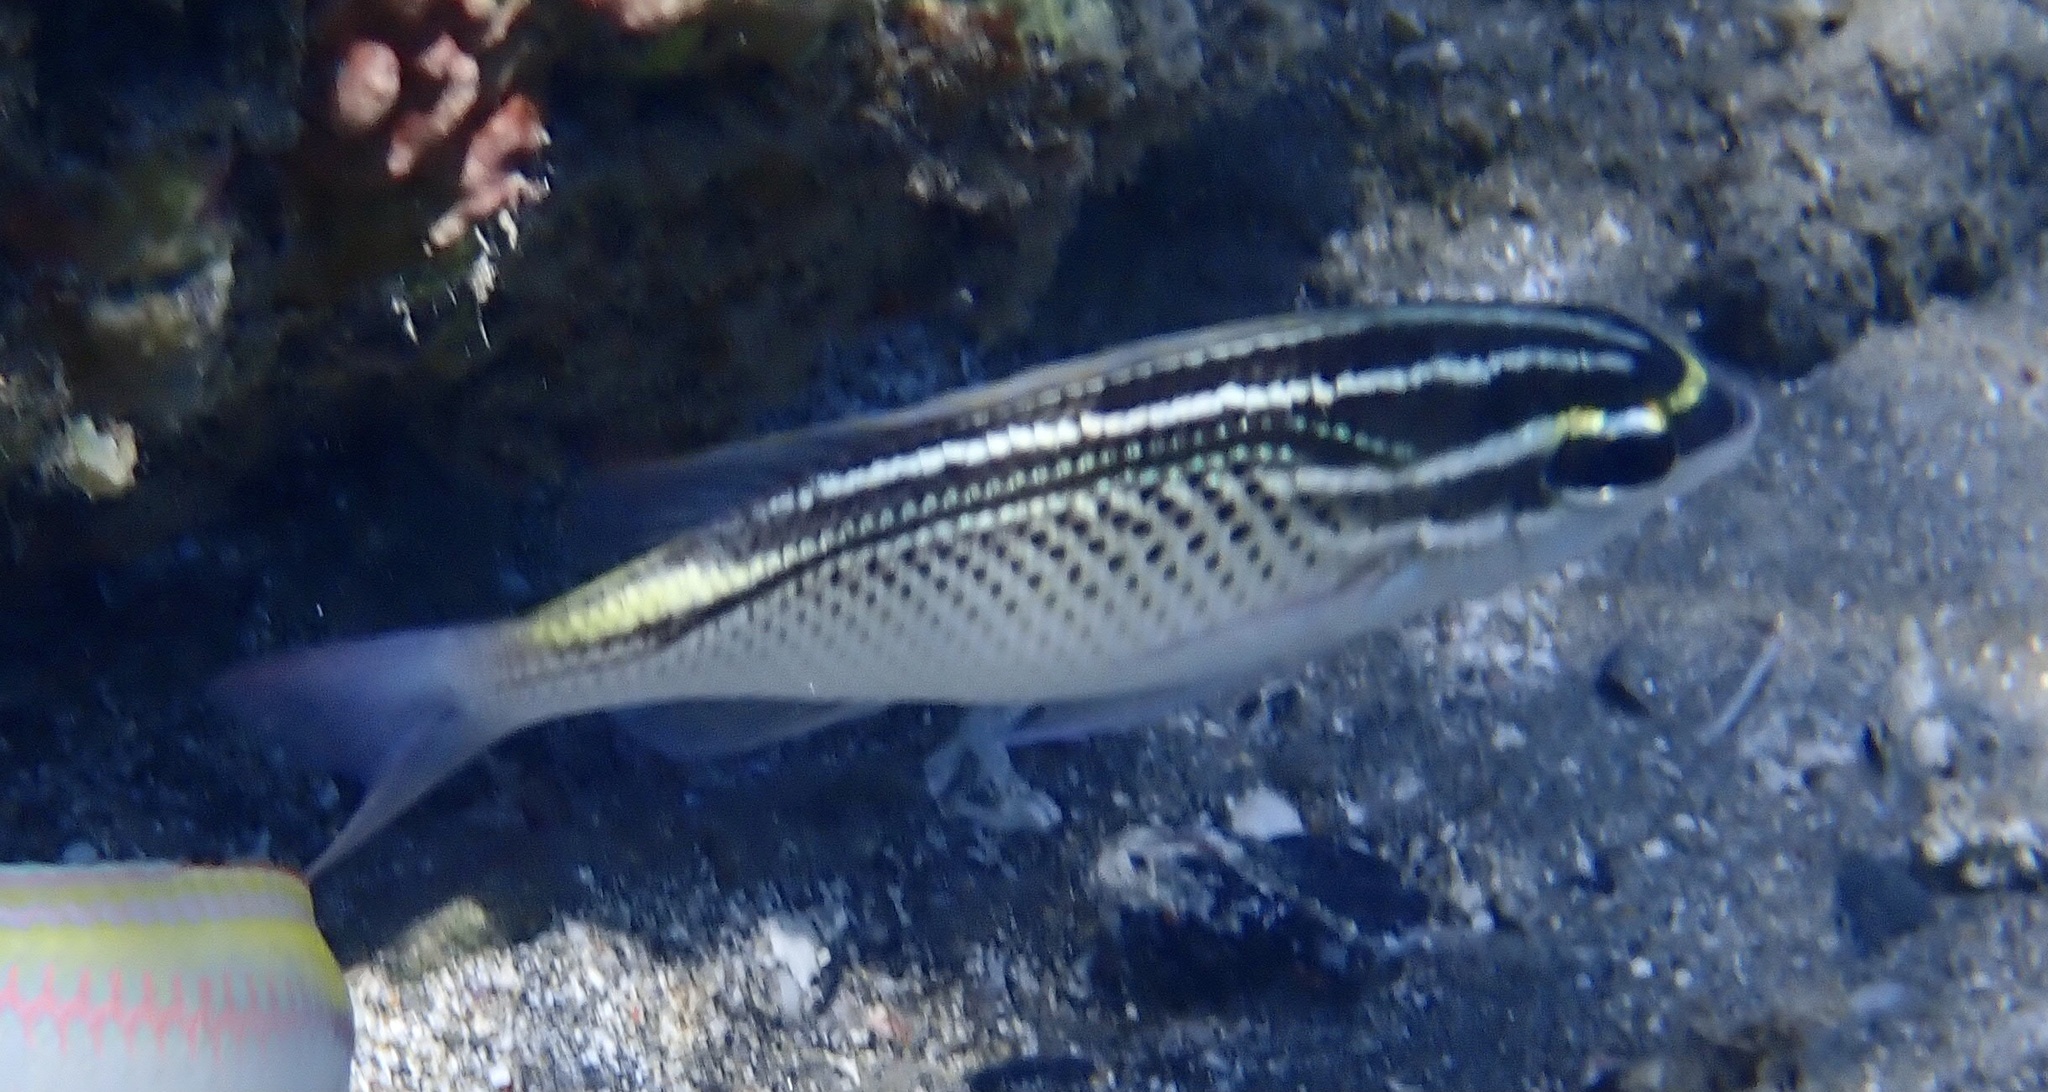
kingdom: Animalia
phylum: Chordata
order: Perciformes
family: Nemipteridae
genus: Scolopsis
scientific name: Scolopsis ghanam
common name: Arabian monocle bream
